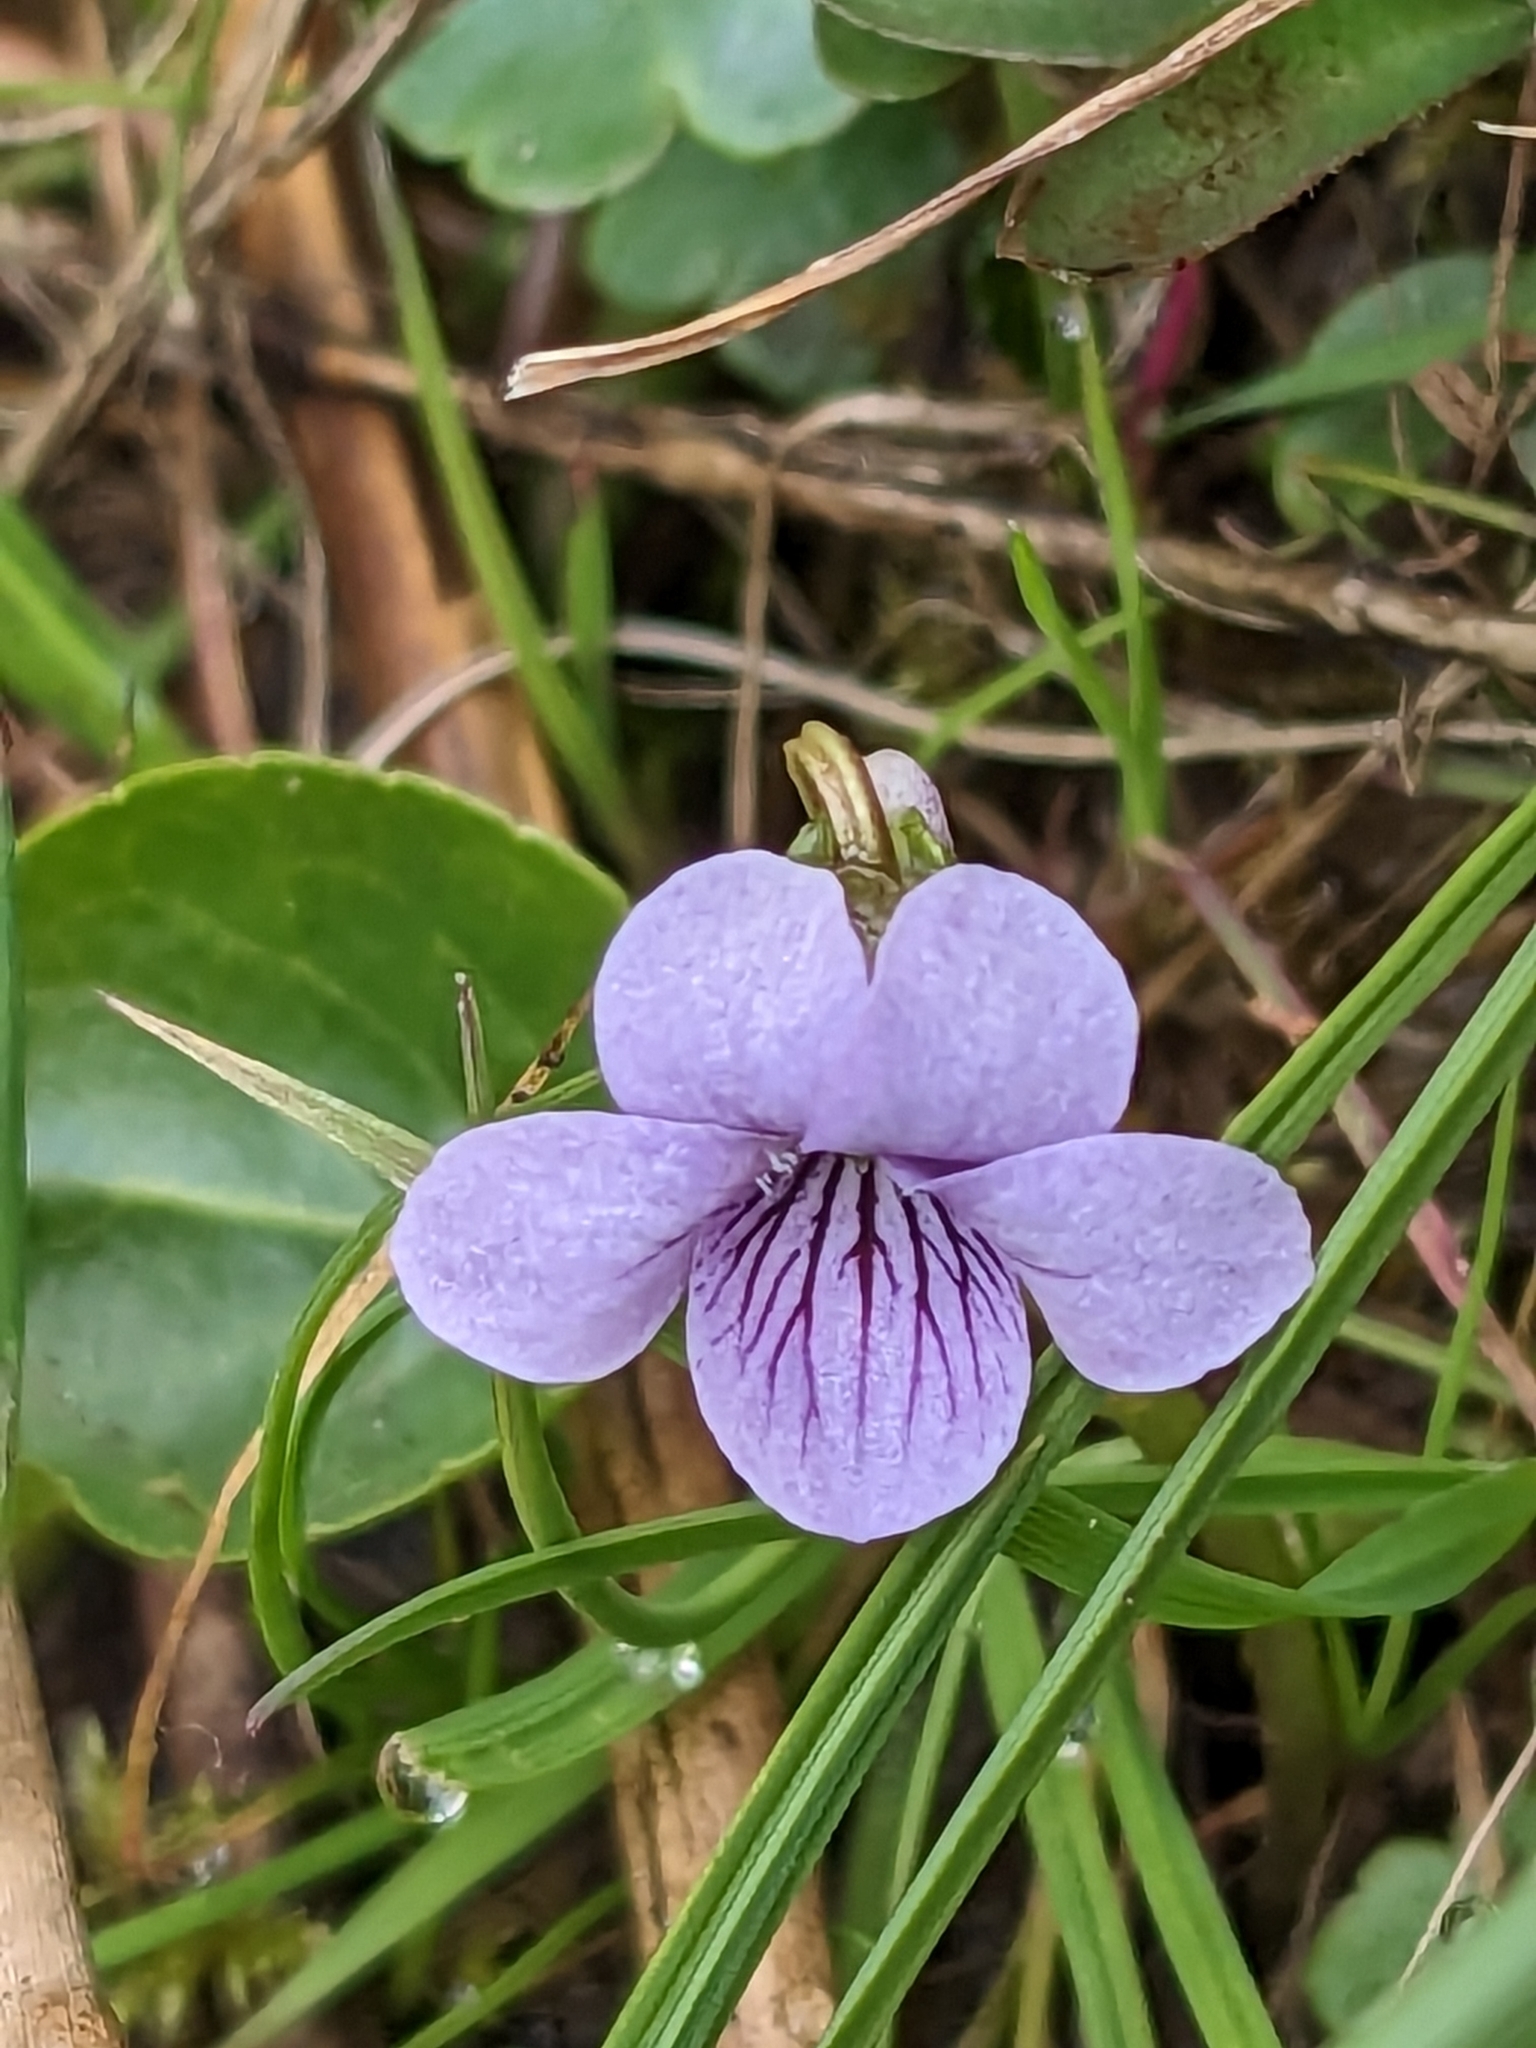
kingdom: Plantae
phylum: Tracheophyta
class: Magnoliopsida
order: Malpighiales
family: Violaceae
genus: Viola
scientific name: Viola palustris
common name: Marsh violet
